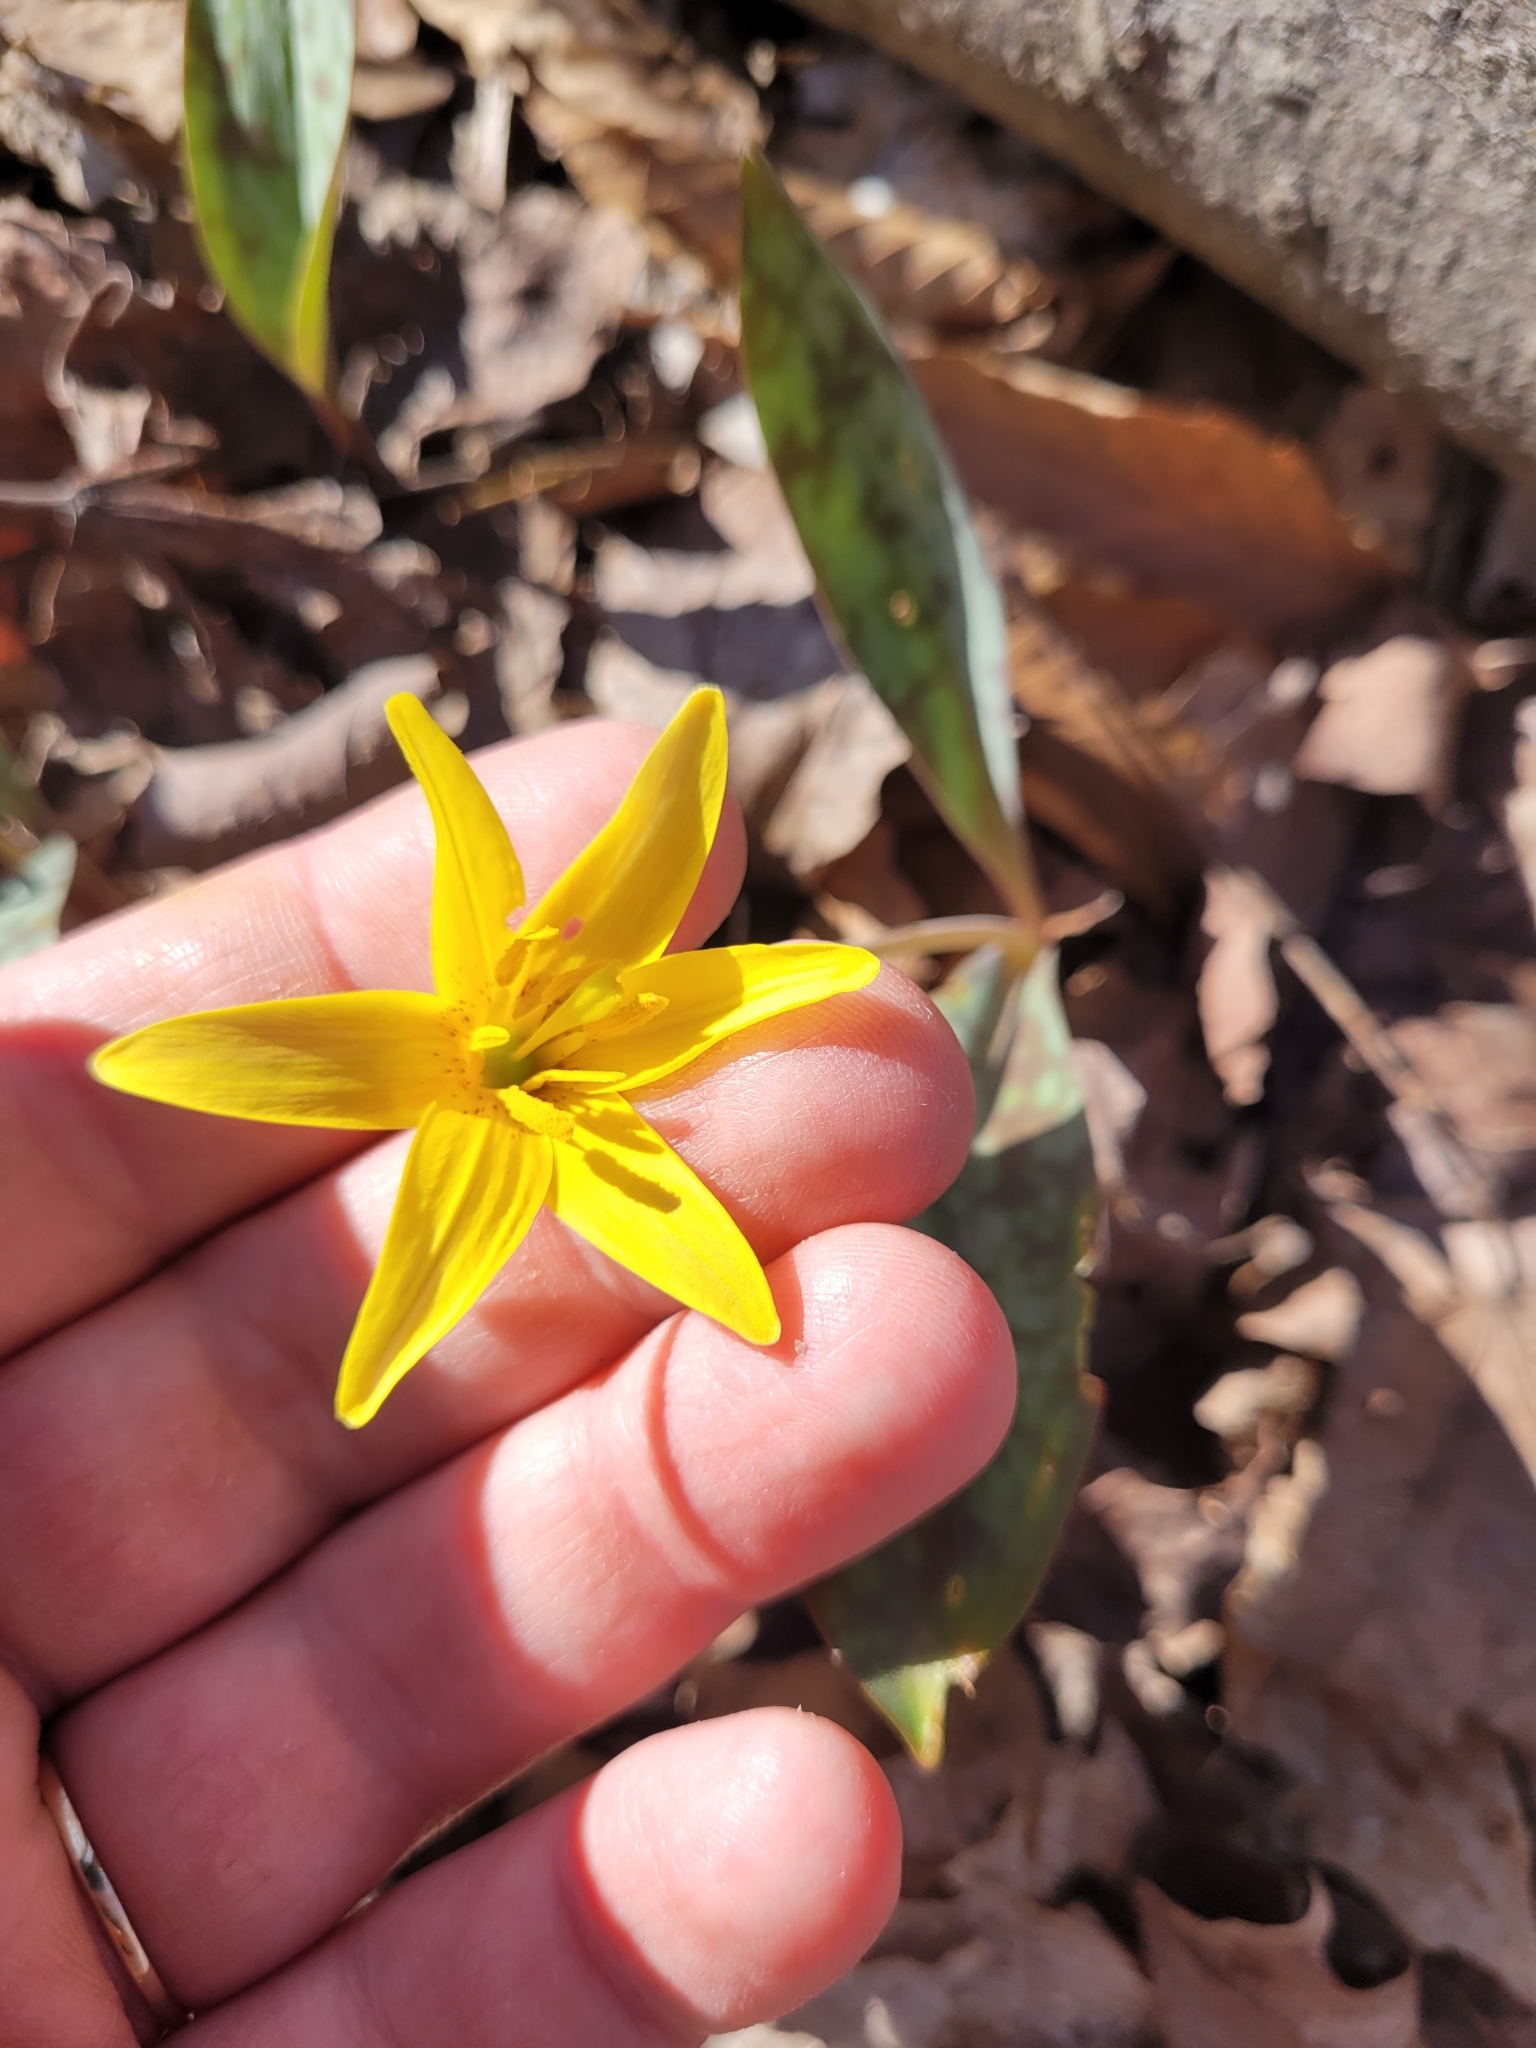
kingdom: Plantae
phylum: Tracheophyta
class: Liliopsida
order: Liliales
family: Liliaceae
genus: Erythronium
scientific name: Erythronium americanum
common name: Yellow adder's-tongue
